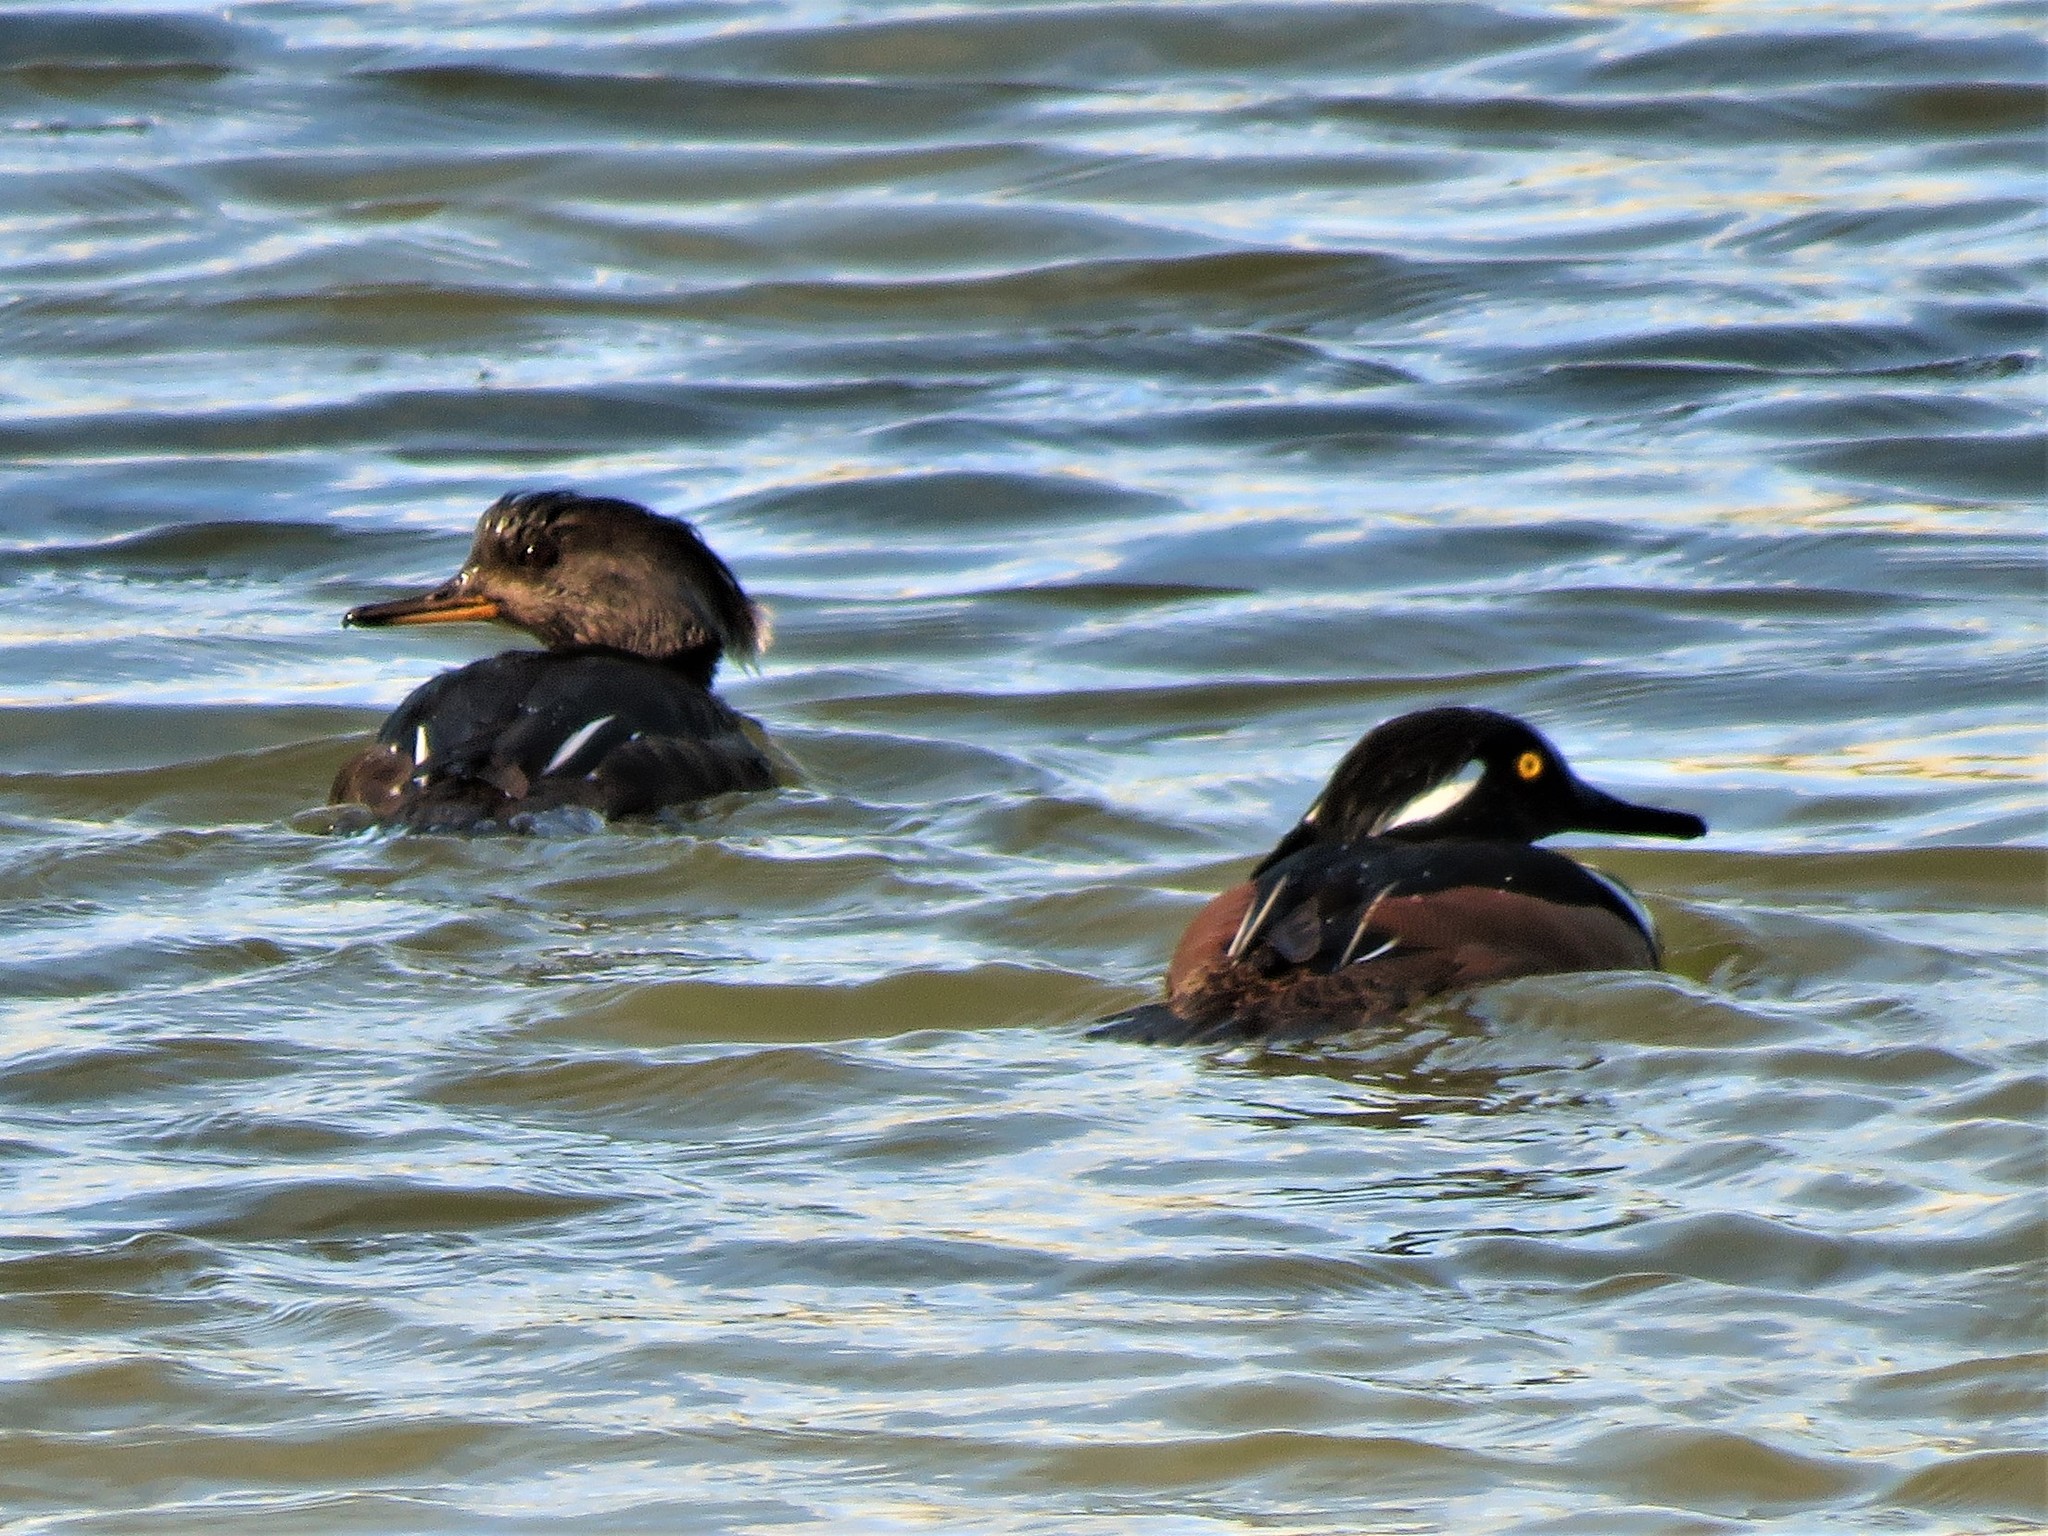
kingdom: Animalia
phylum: Chordata
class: Aves
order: Anseriformes
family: Anatidae
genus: Lophodytes
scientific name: Lophodytes cucullatus
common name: Hooded merganser
